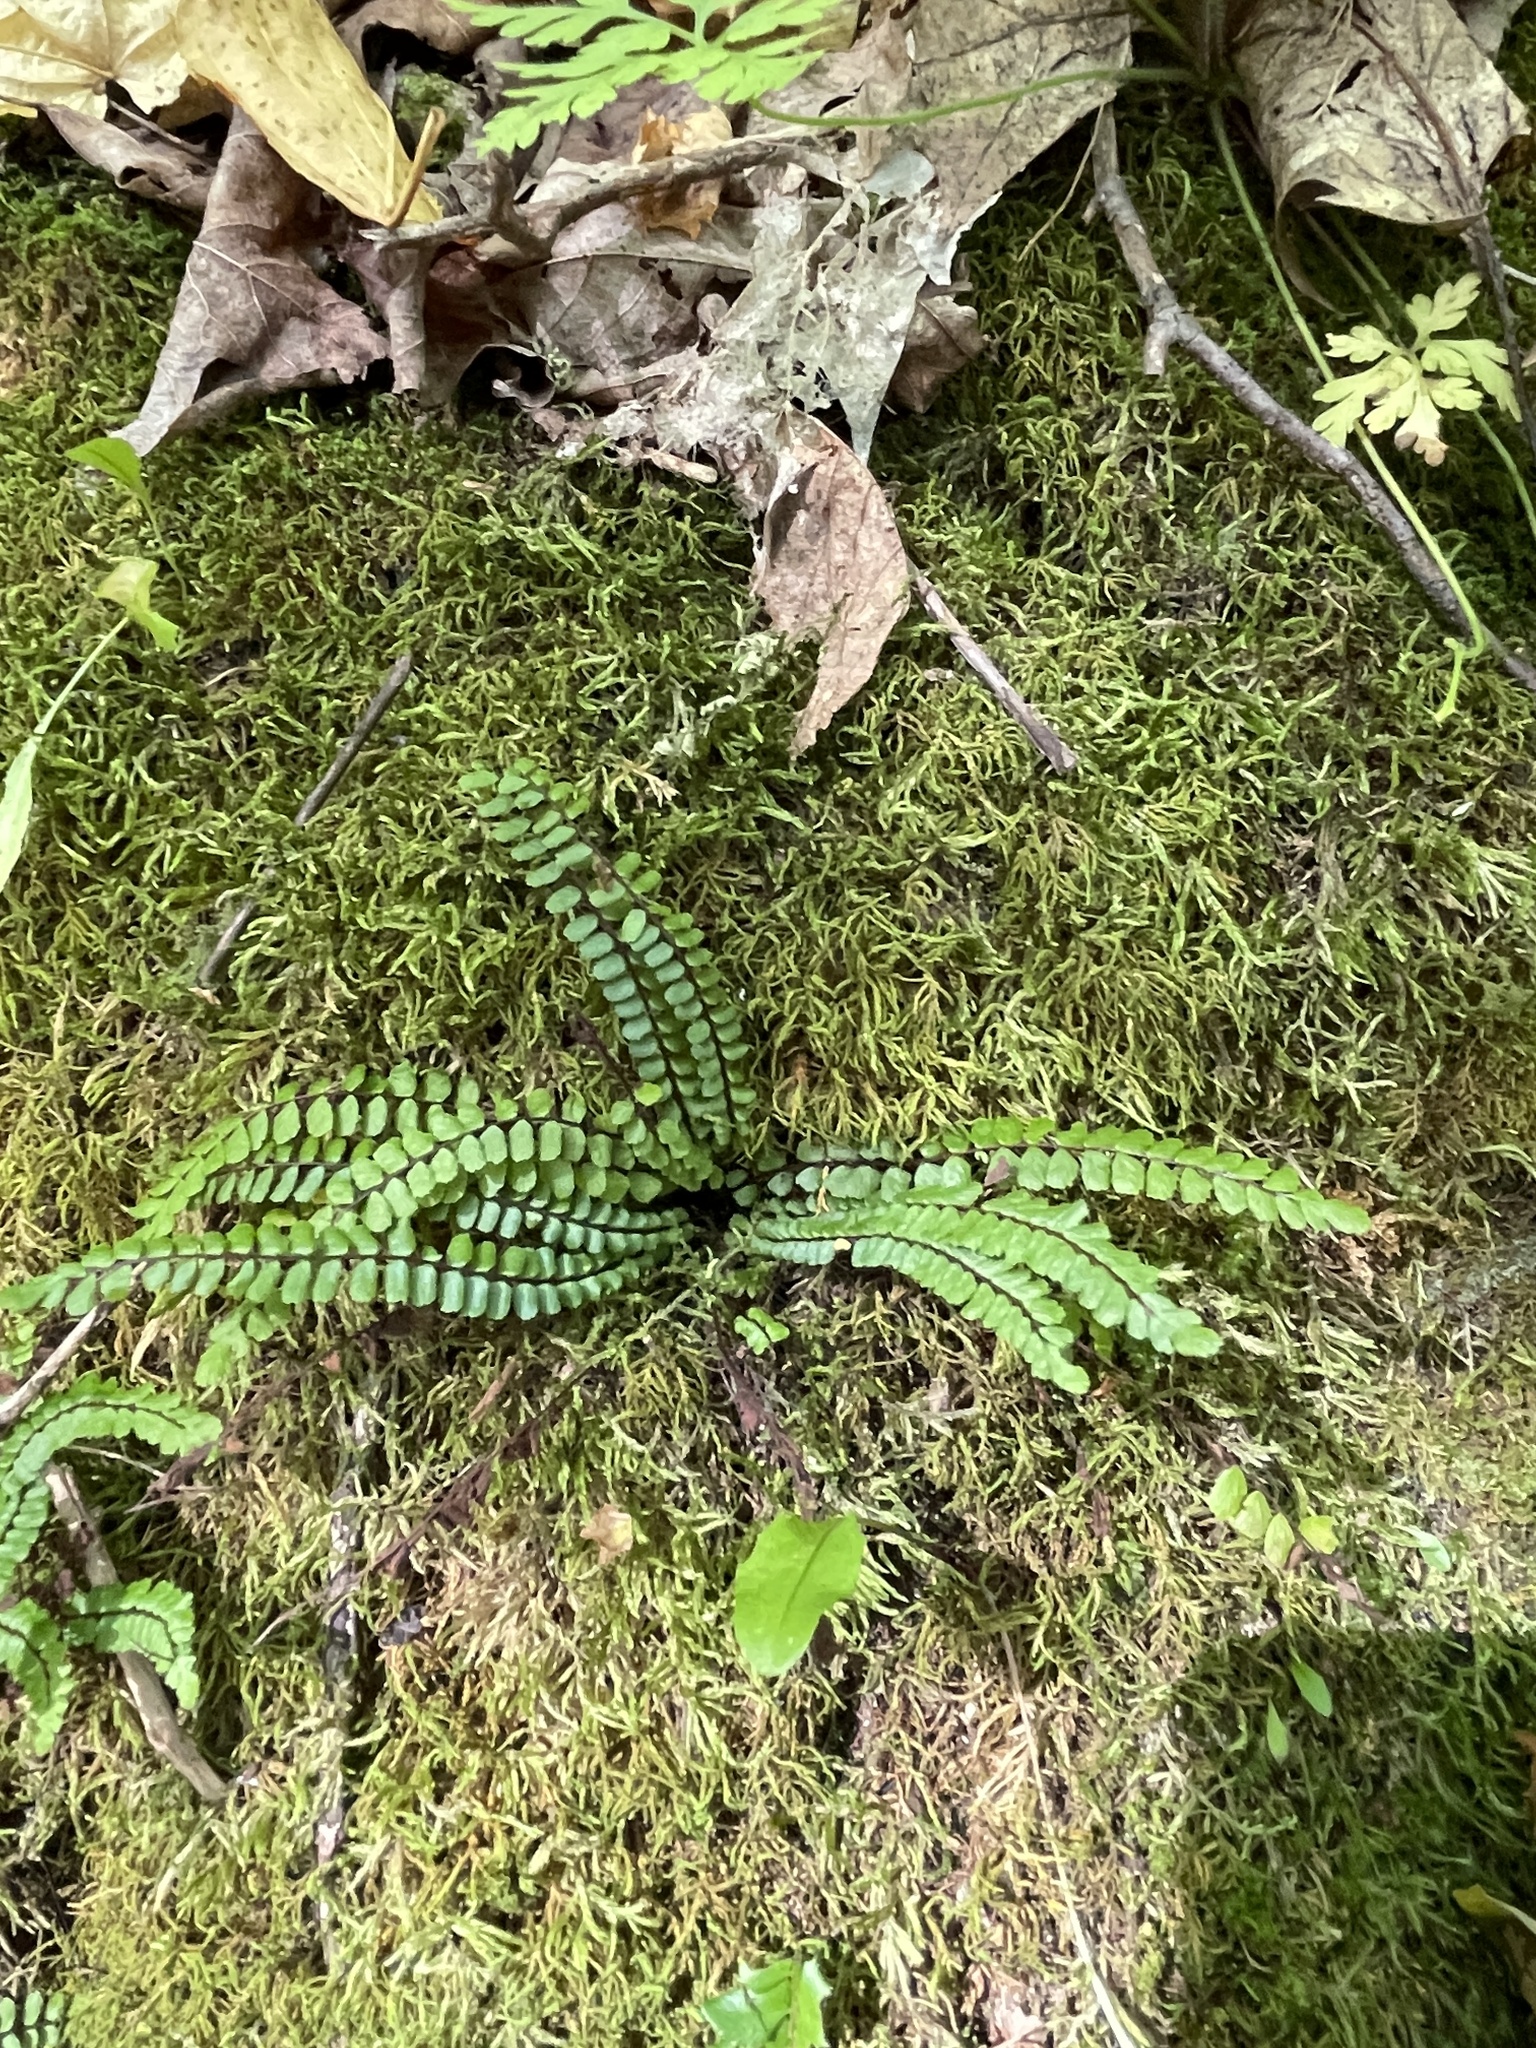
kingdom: Plantae
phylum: Tracheophyta
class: Polypodiopsida
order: Polypodiales
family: Aspleniaceae
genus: Asplenium
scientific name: Asplenium trichomanes
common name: Maidenhair spleenwort
